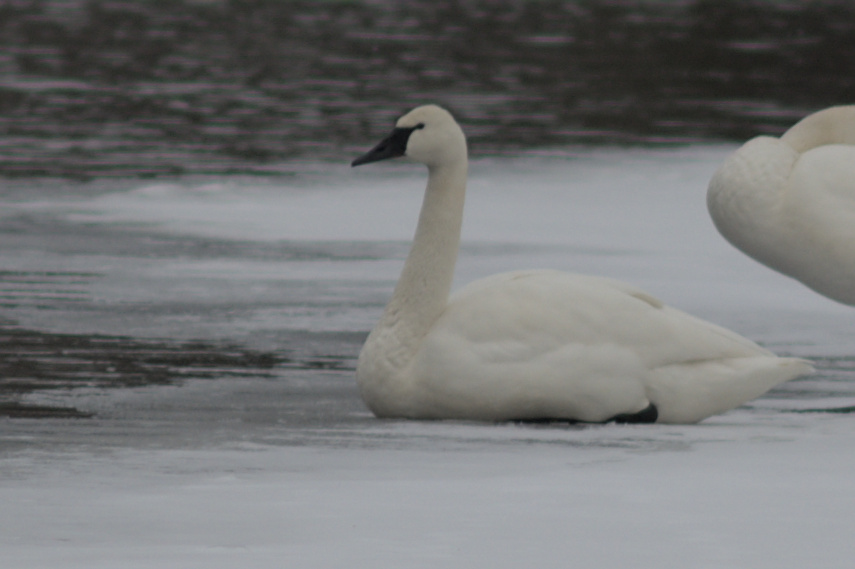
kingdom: Animalia
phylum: Chordata
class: Aves
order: Anseriformes
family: Anatidae
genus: Cygnus
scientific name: Cygnus columbianus
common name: Tundra swan
